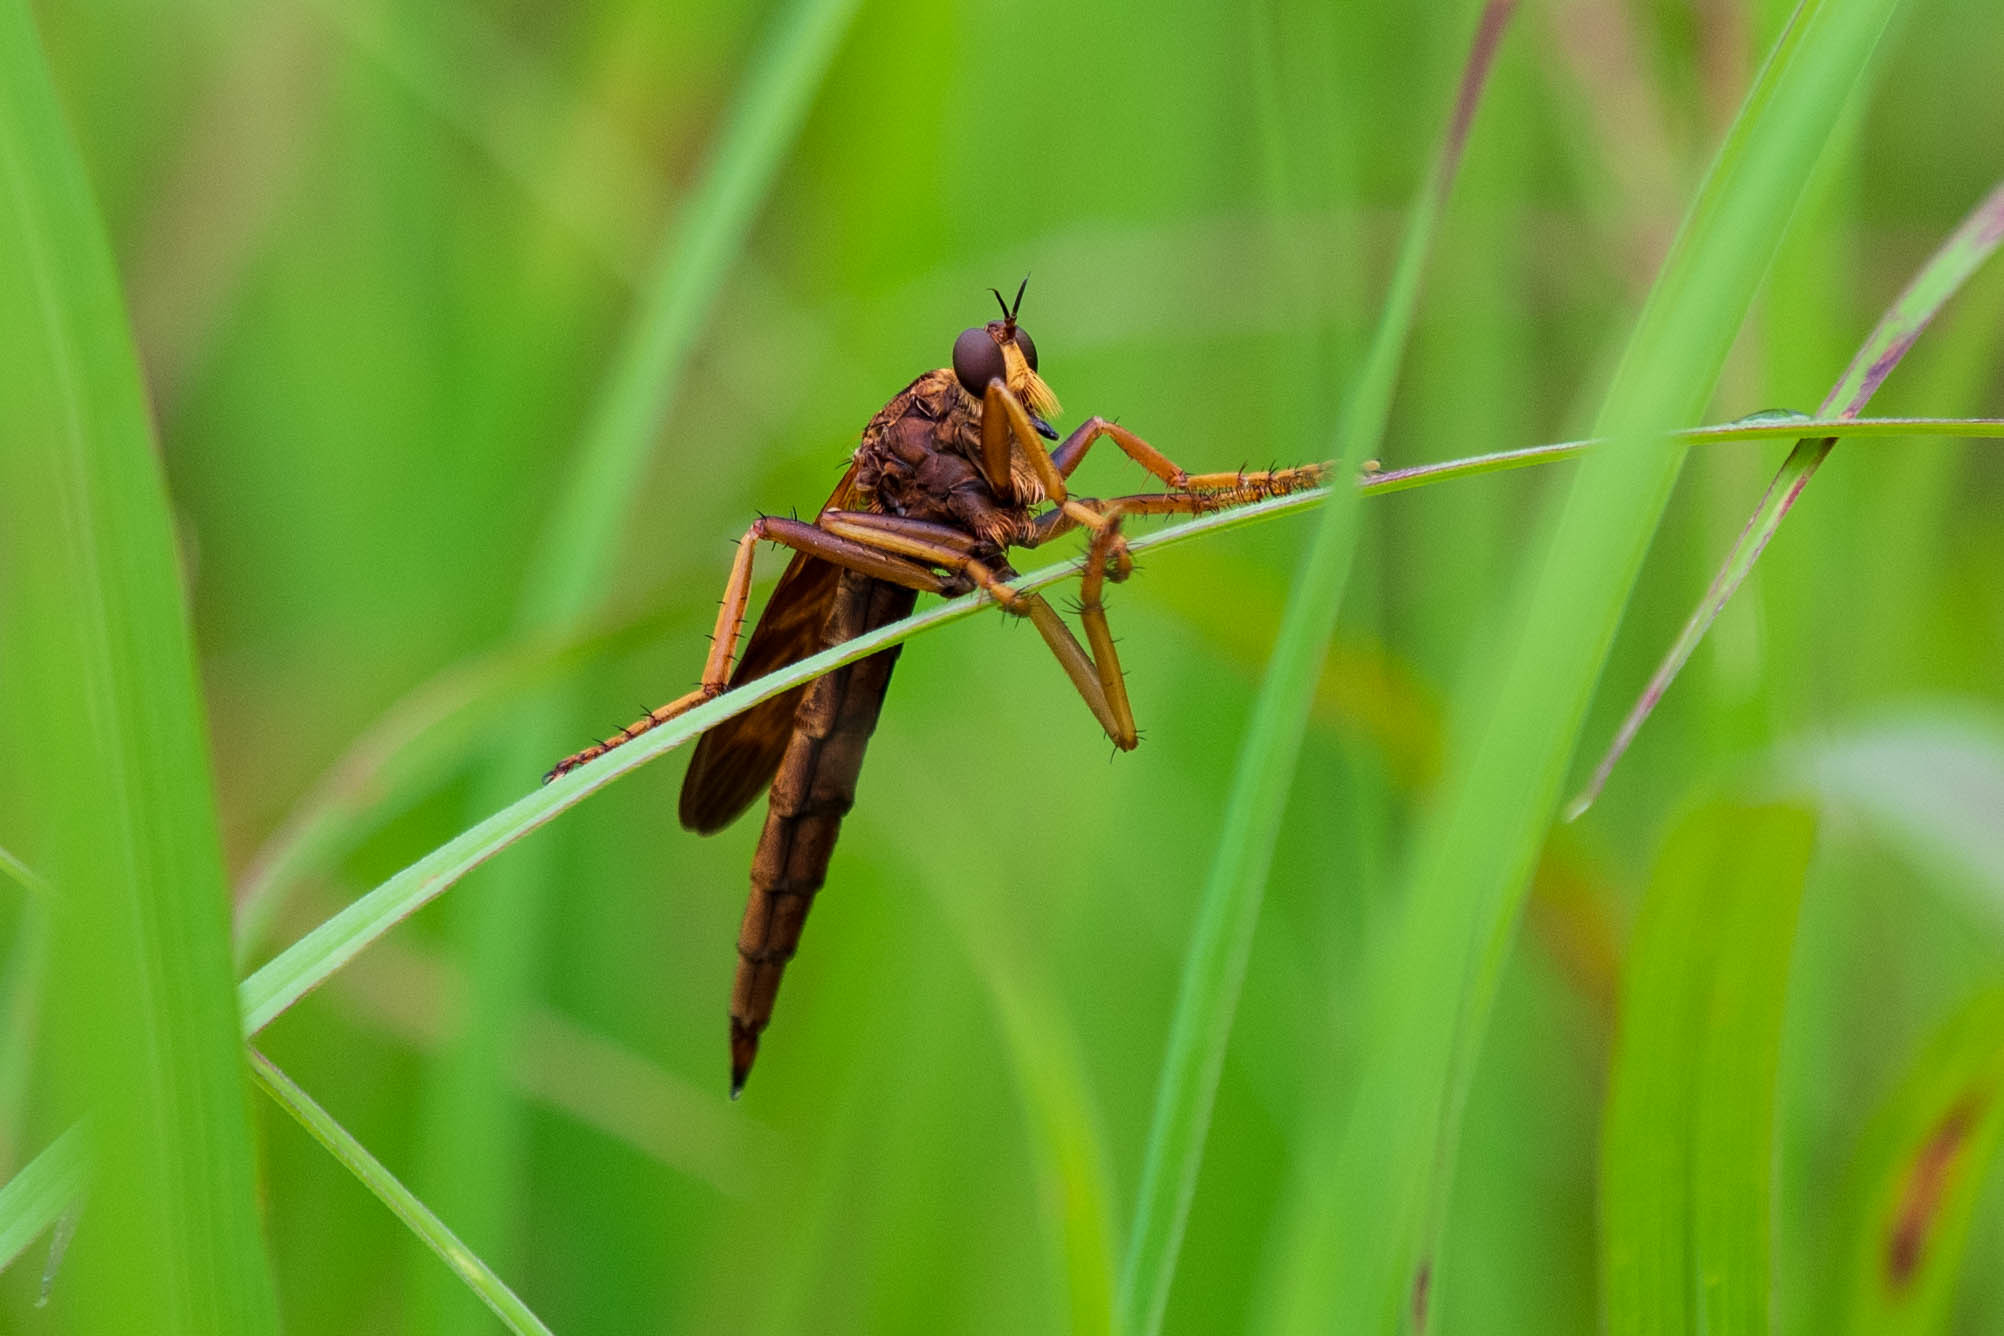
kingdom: Animalia
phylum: Arthropoda
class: Insecta
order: Diptera
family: Asilidae
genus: Asilus
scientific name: Asilus sericeus
